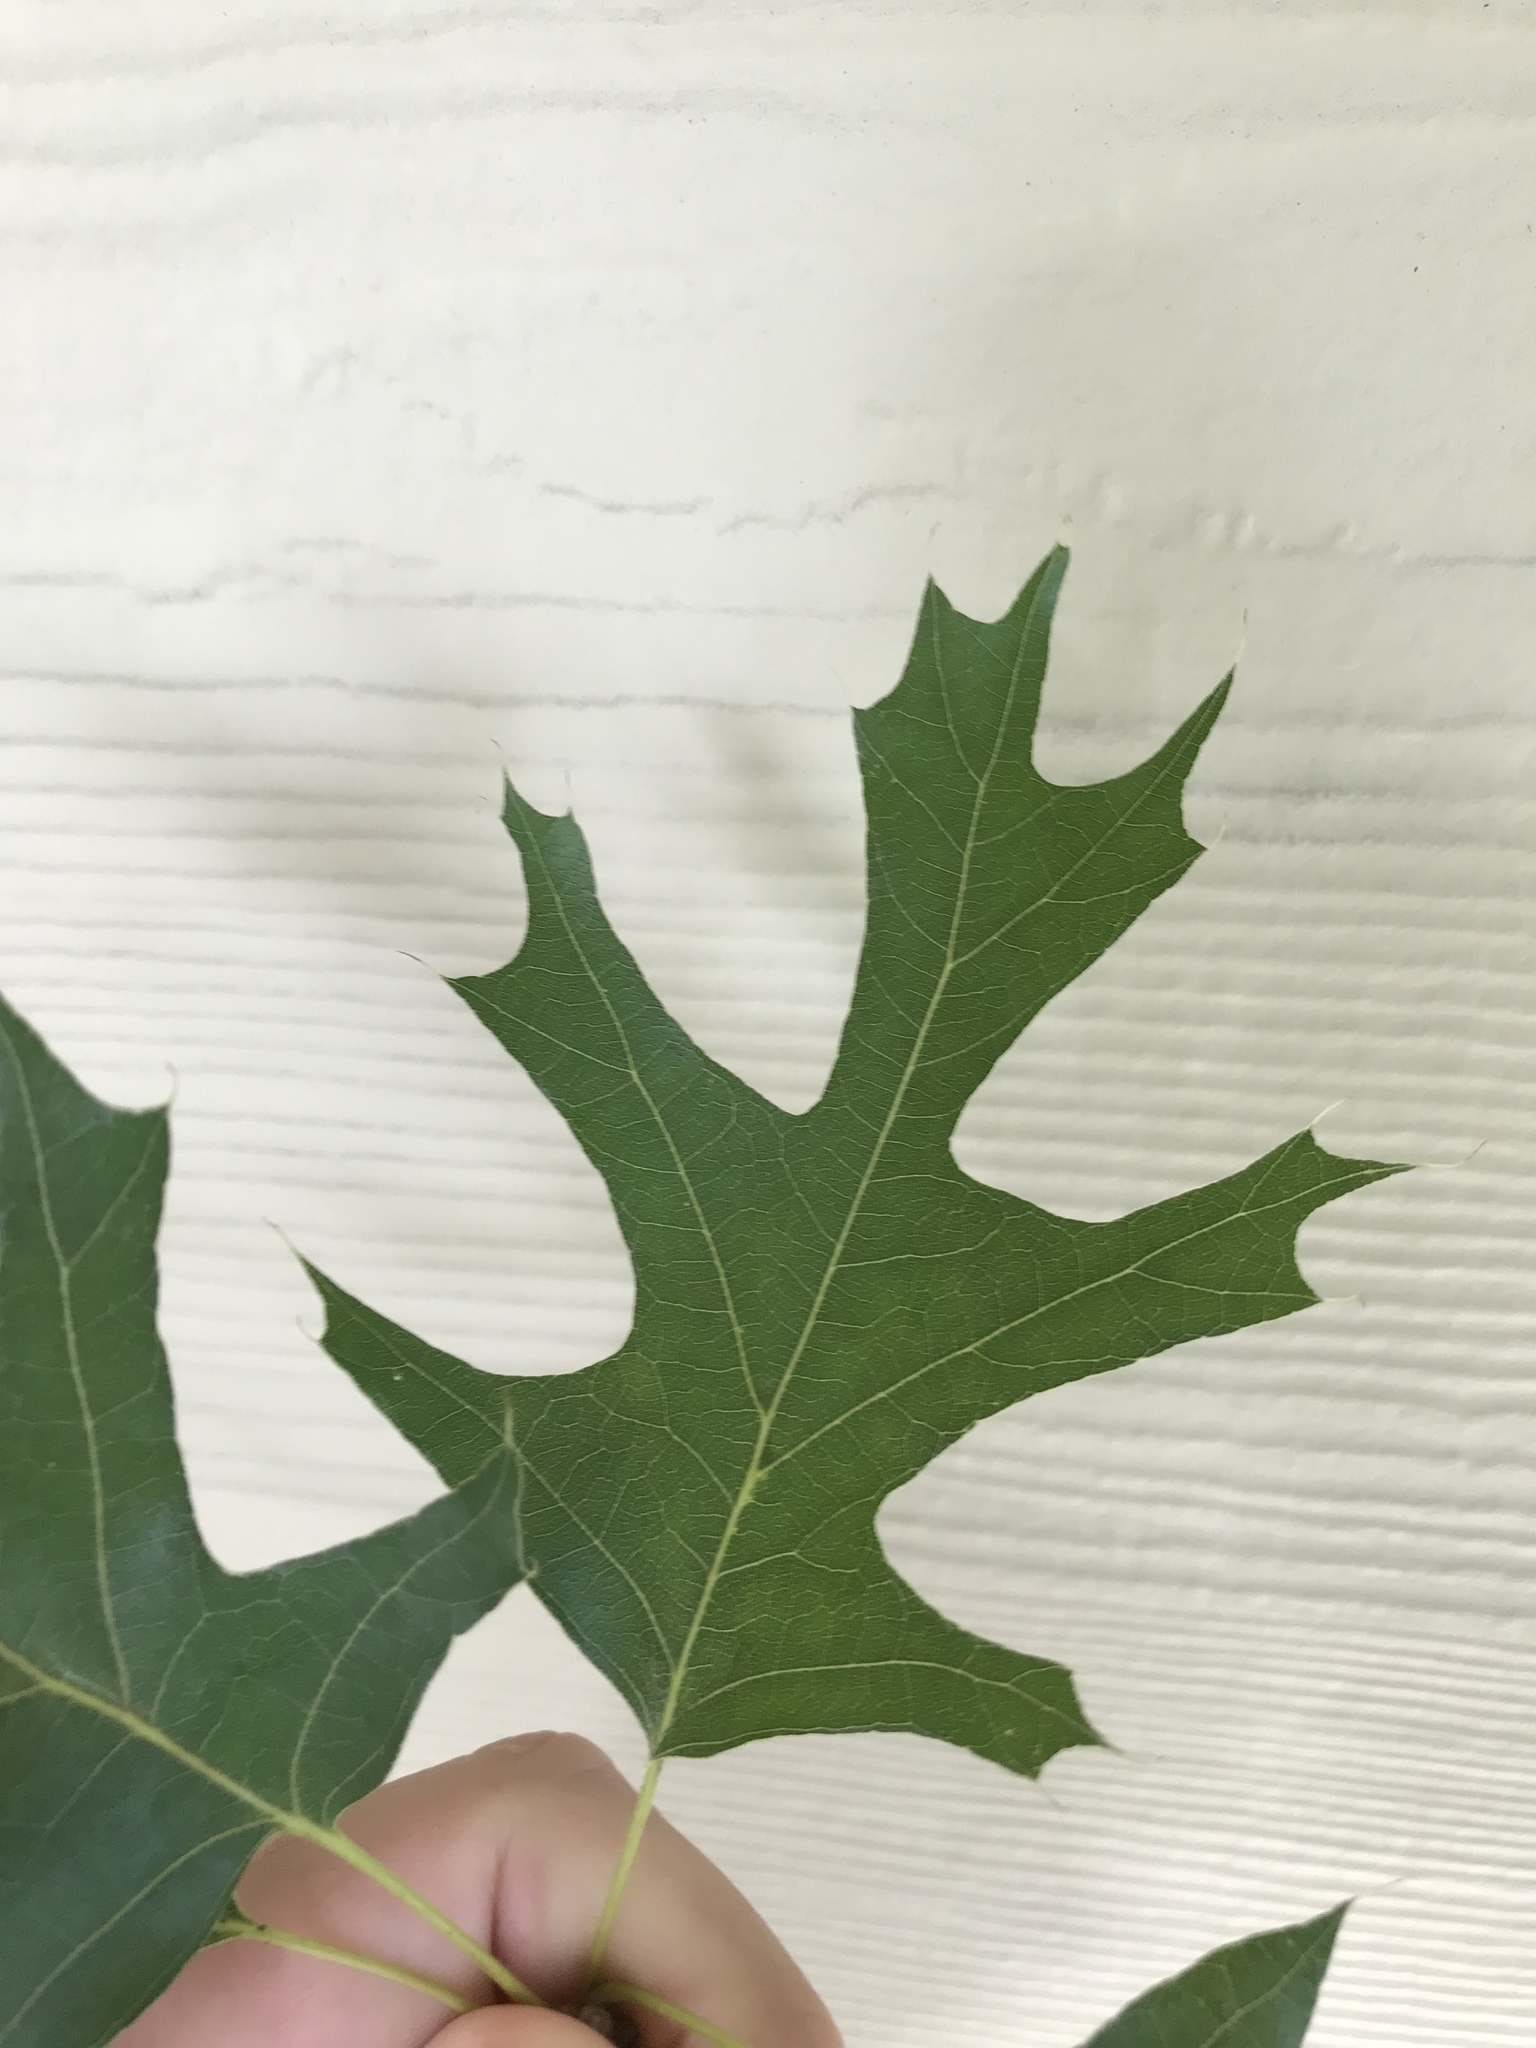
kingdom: Plantae
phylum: Tracheophyta
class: Magnoliopsida
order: Fagales
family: Fagaceae
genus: Quercus
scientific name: Quercus shumardii
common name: Shumard oak
